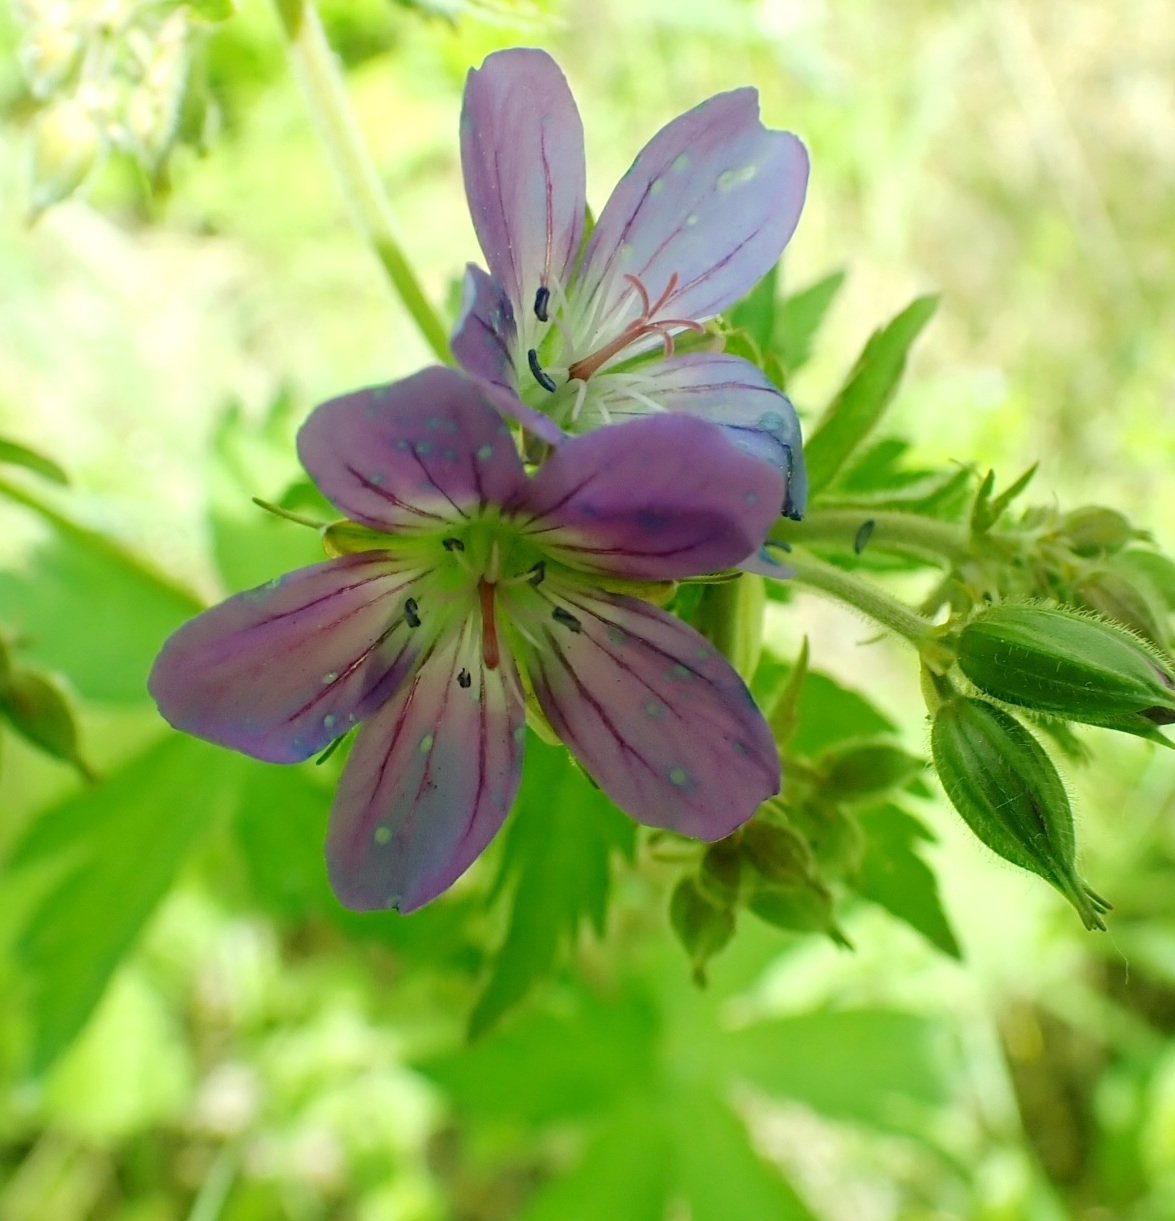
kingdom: Plantae
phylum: Tracheophyta
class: Magnoliopsida
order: Geraniales
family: Geraniaceae
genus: Geranium
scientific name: Geranium sylvaticum
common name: Wood crane's-bill
